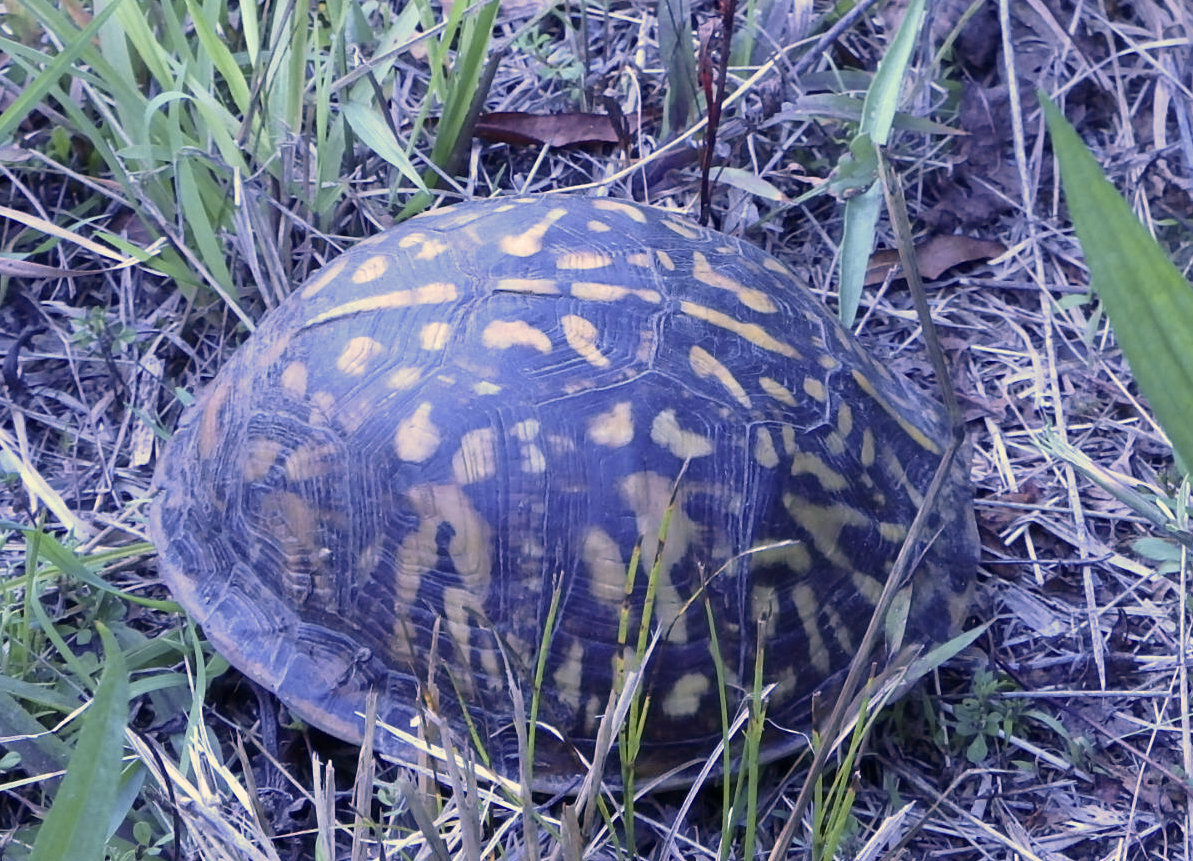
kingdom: Animalia
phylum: Chordata
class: Testudines
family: Emydidae
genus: Terrapene
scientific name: Terrapene carolina
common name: Common box turtle
